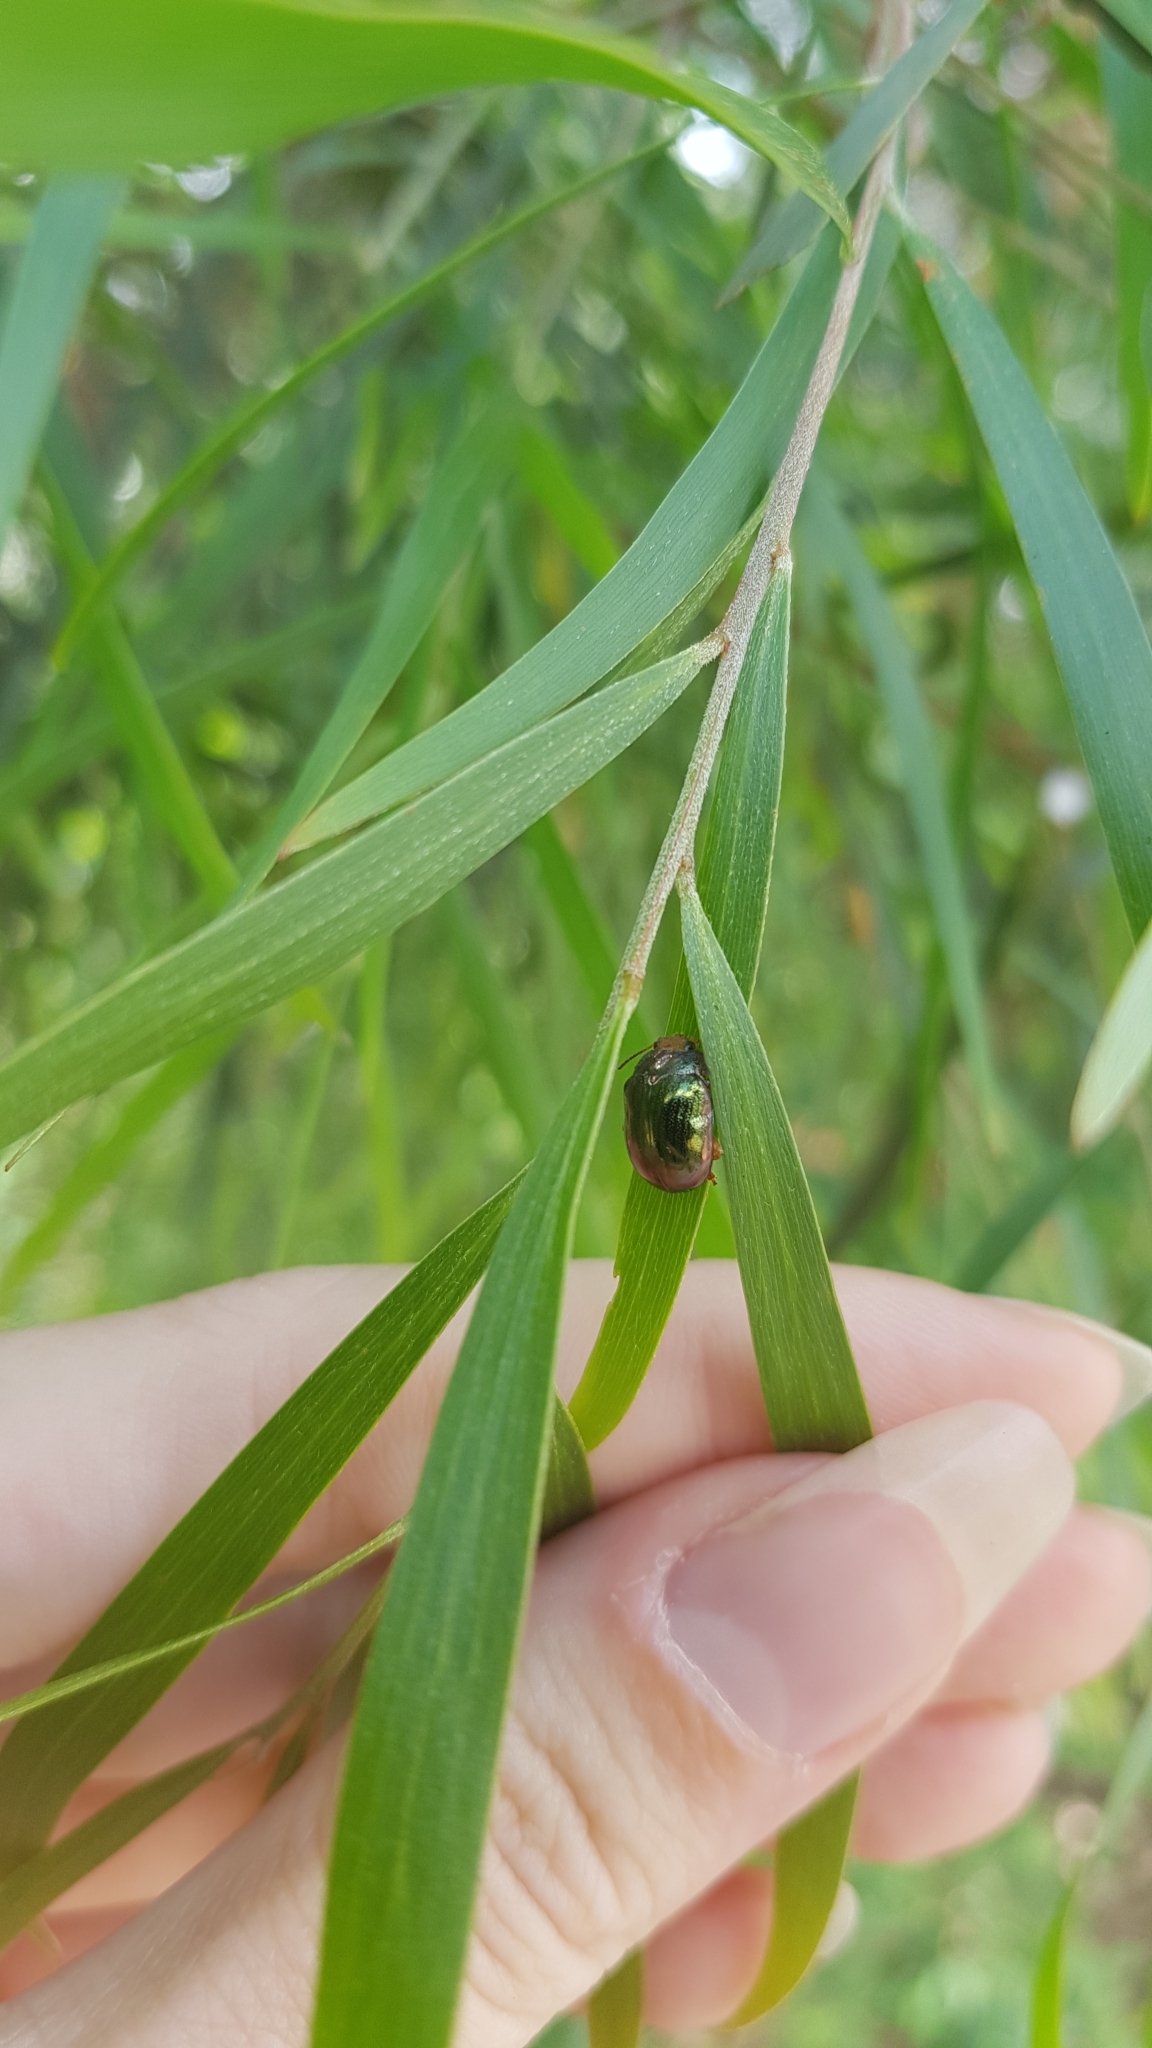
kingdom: Animalia
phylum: Arthropoda
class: Insecta
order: Coleoptera
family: Chrysomelidae
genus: Calomela
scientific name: Calomela
